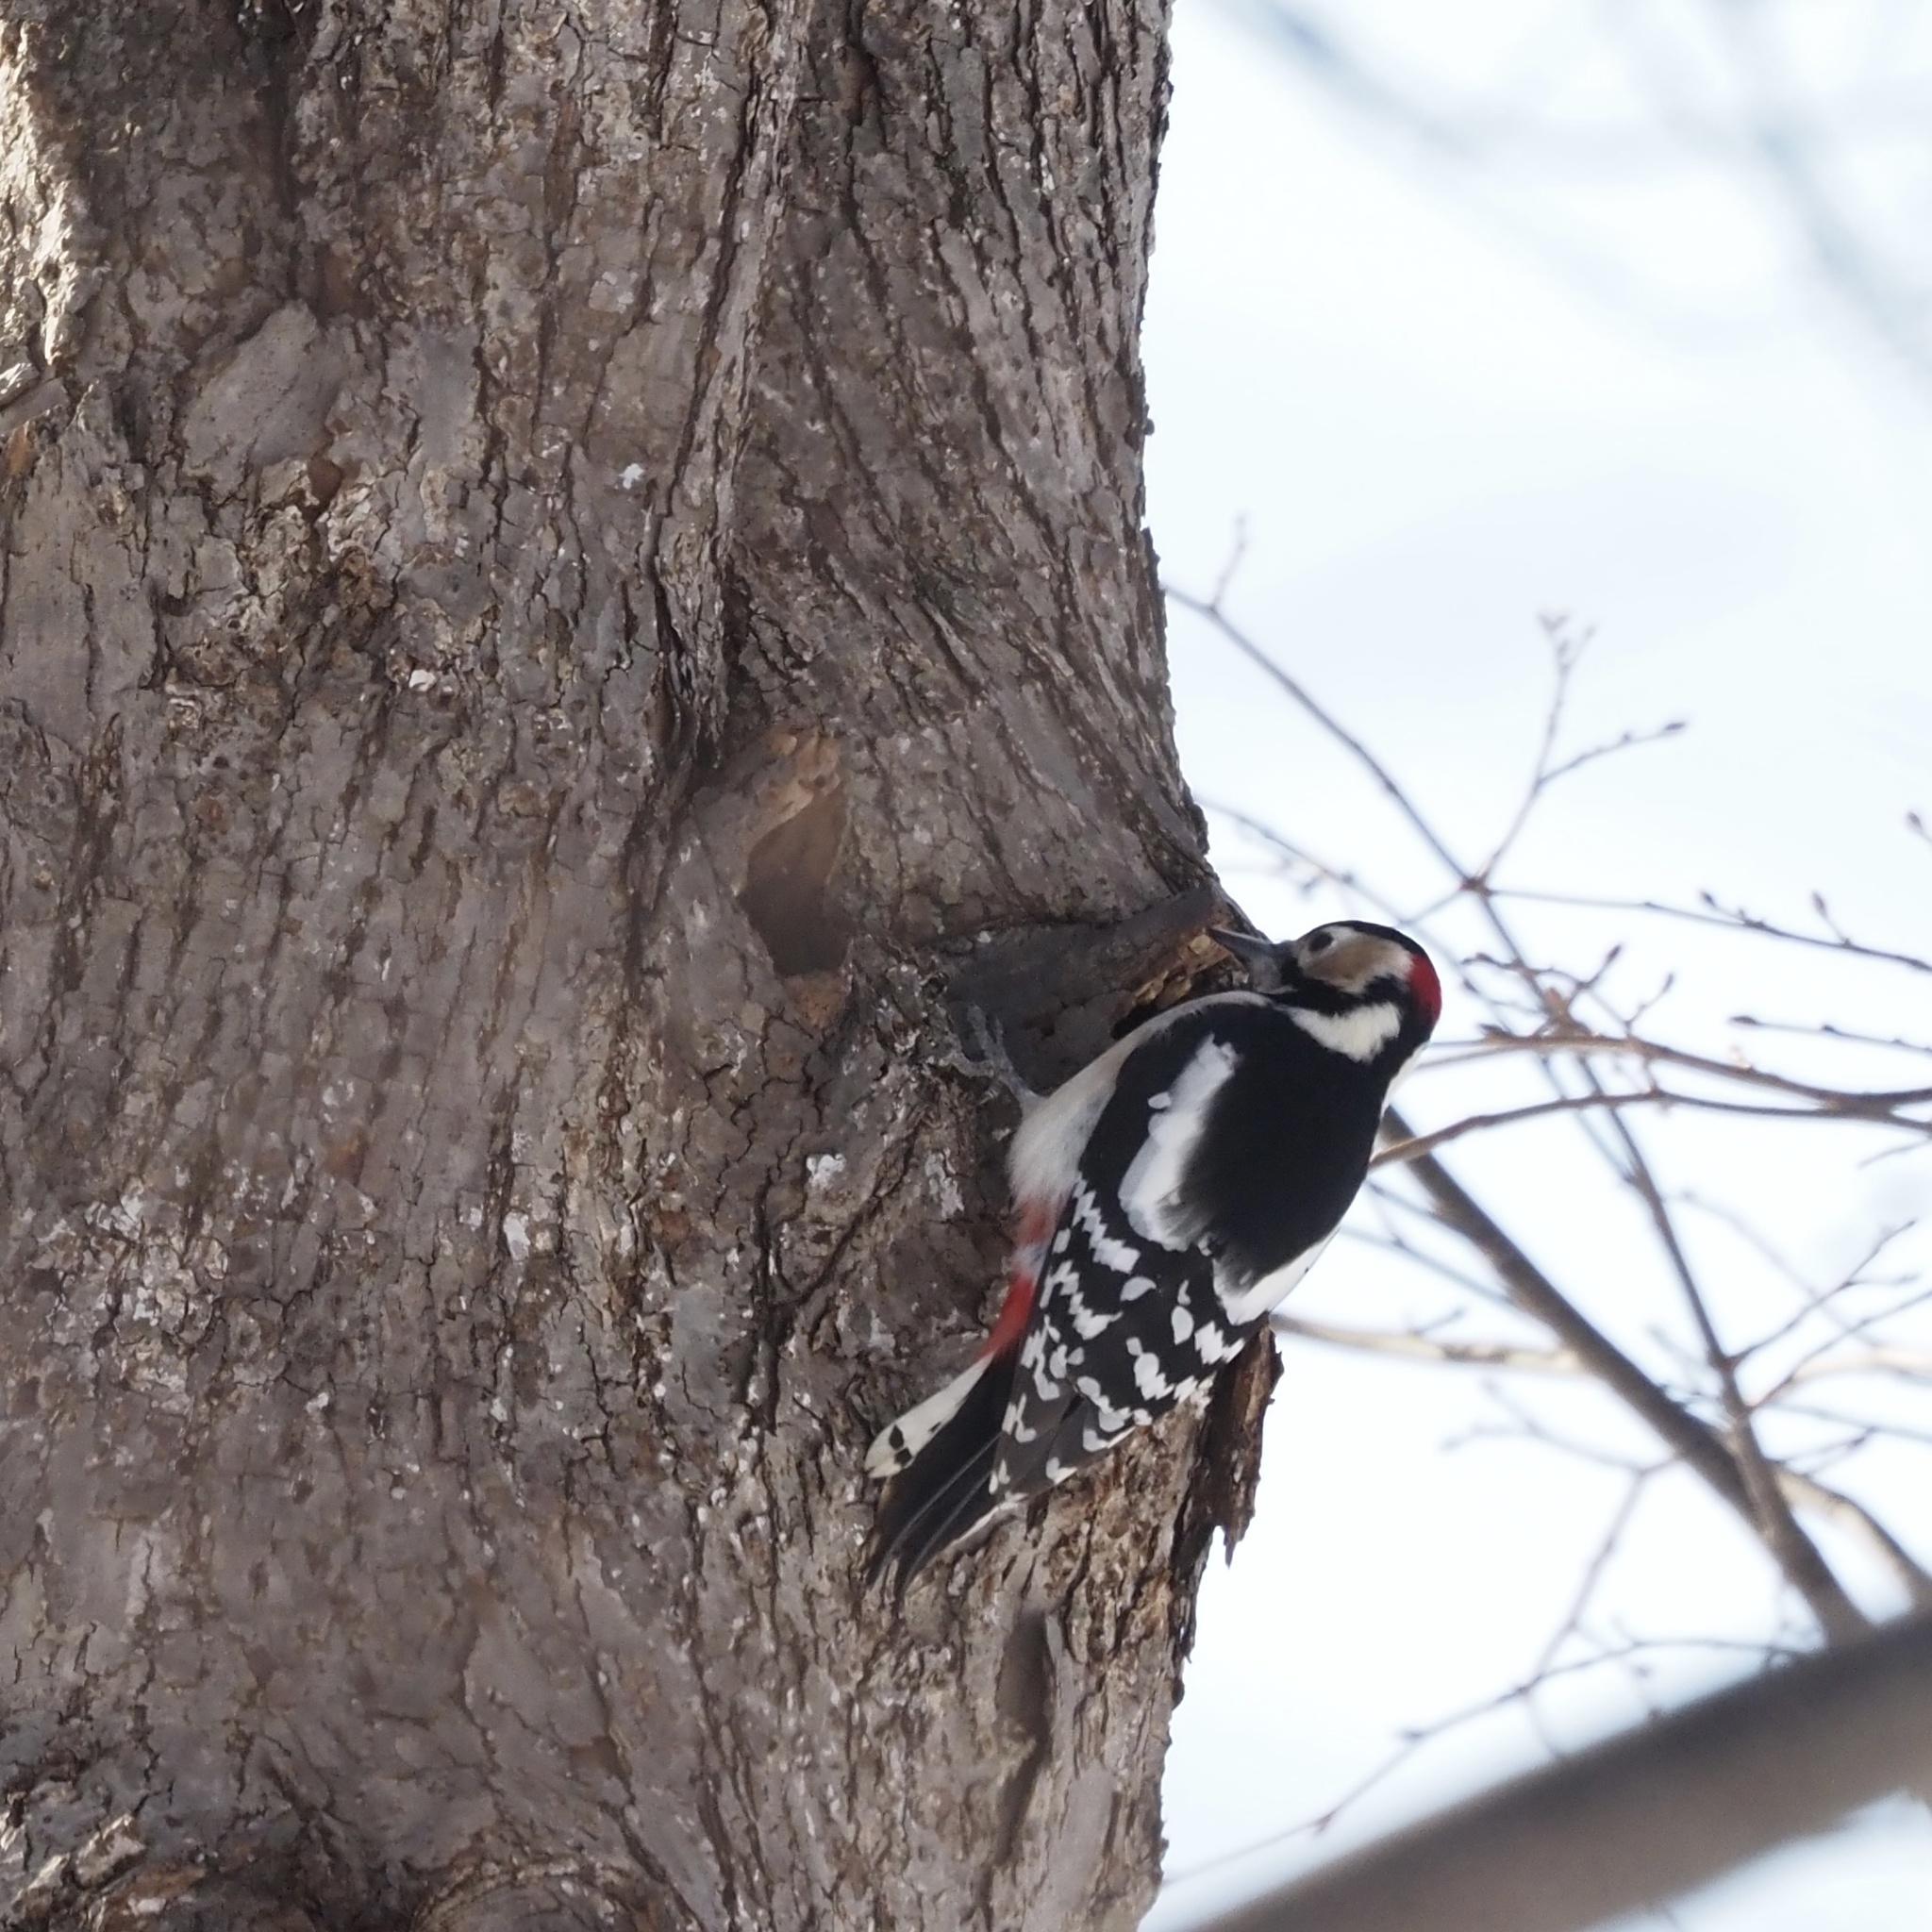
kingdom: Animalia
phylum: Chordata
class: Aves
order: Piciformes
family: Picidae
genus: Dendrocopos
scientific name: Dendrocopos major
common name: Great spotted woodpecker
